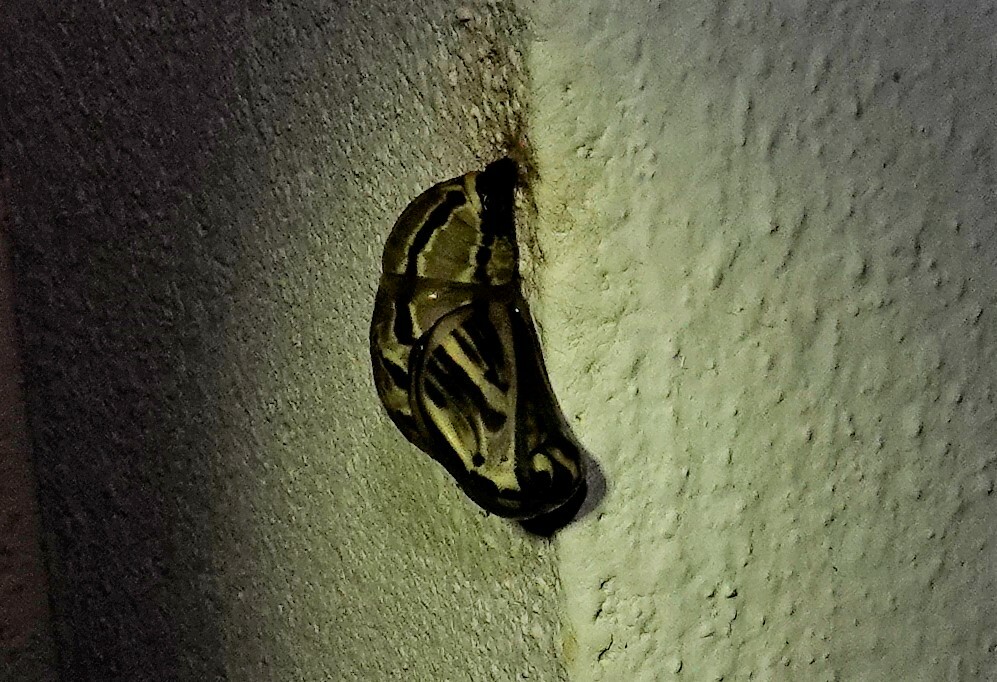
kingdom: Animalia
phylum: Arthropoda
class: Insecta
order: Lepidoptera
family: Nymphalidae
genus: Brassolis
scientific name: Brassolis sophorae
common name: Coconut caterpillar
